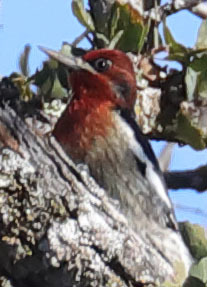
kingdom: Animalia
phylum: Chordata
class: Aves
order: Piciformes
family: Picidae
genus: Sphyrapicus
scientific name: Sphyrapicus ruber
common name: Red-breasted sapsucker
